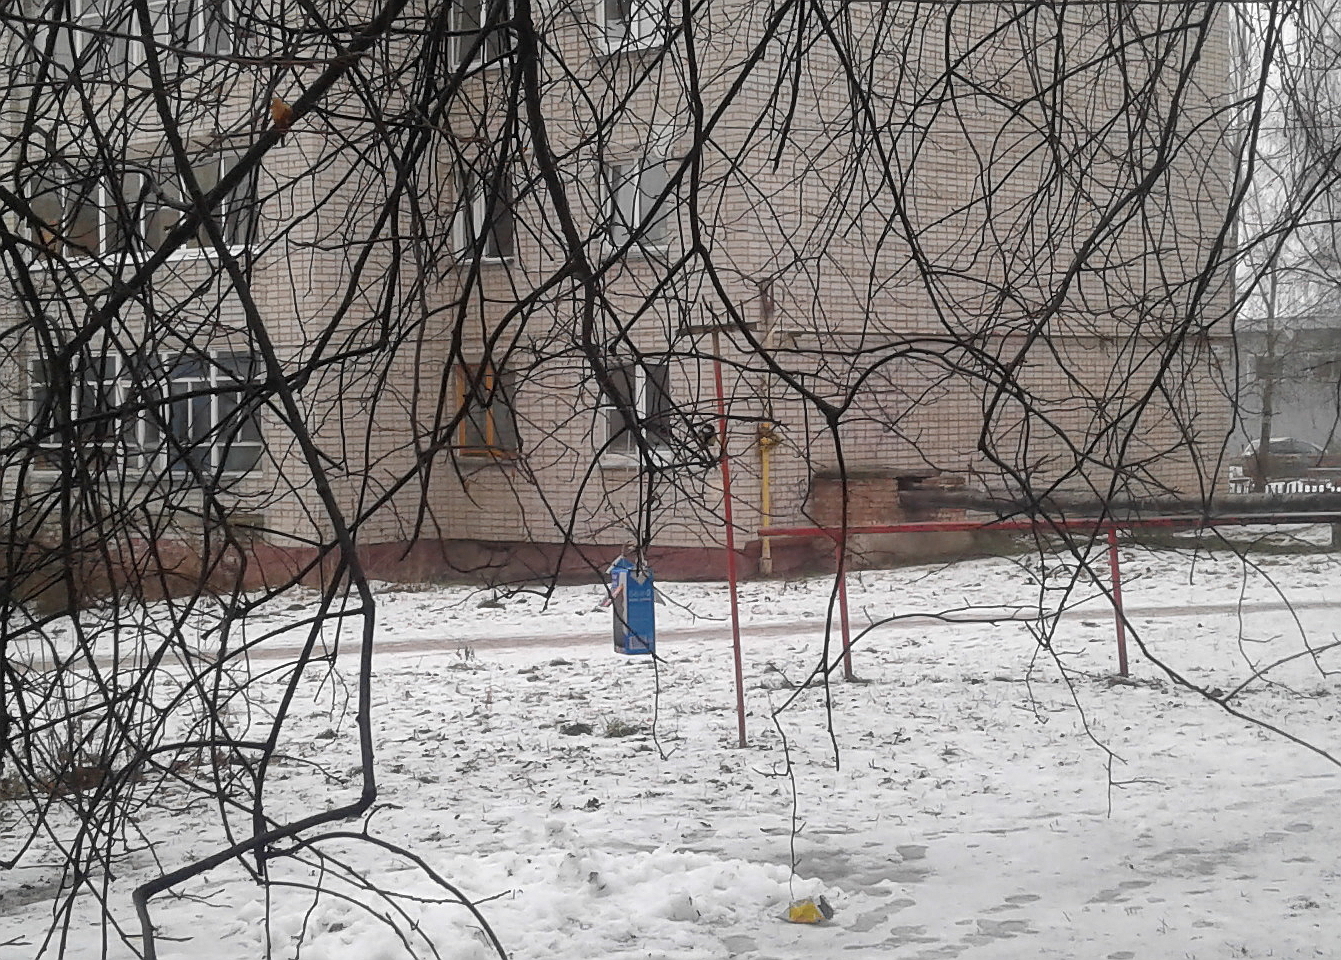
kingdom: Animalia
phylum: Chordata
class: Aves
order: Passeriformes
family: Paridae
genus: Parus
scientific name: Parus major
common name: Great tit
